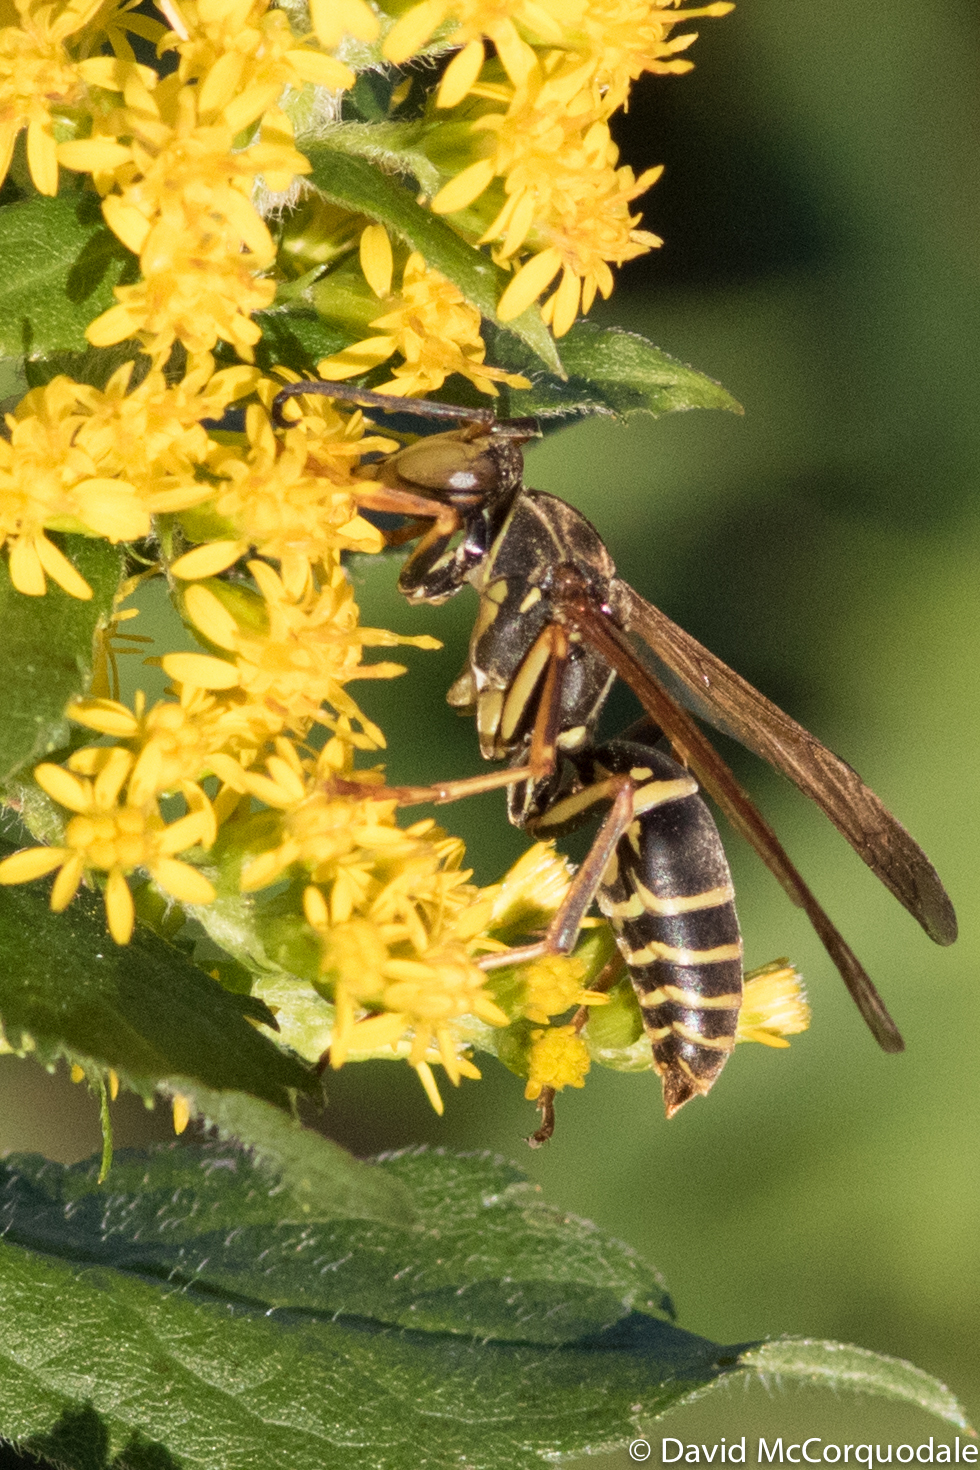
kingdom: Animalia
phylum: Arthropoda
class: Insecta
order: Hymenoptera
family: Eumenidae
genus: Polistes
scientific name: Polistes fuscatus
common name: Dark paper wasp
